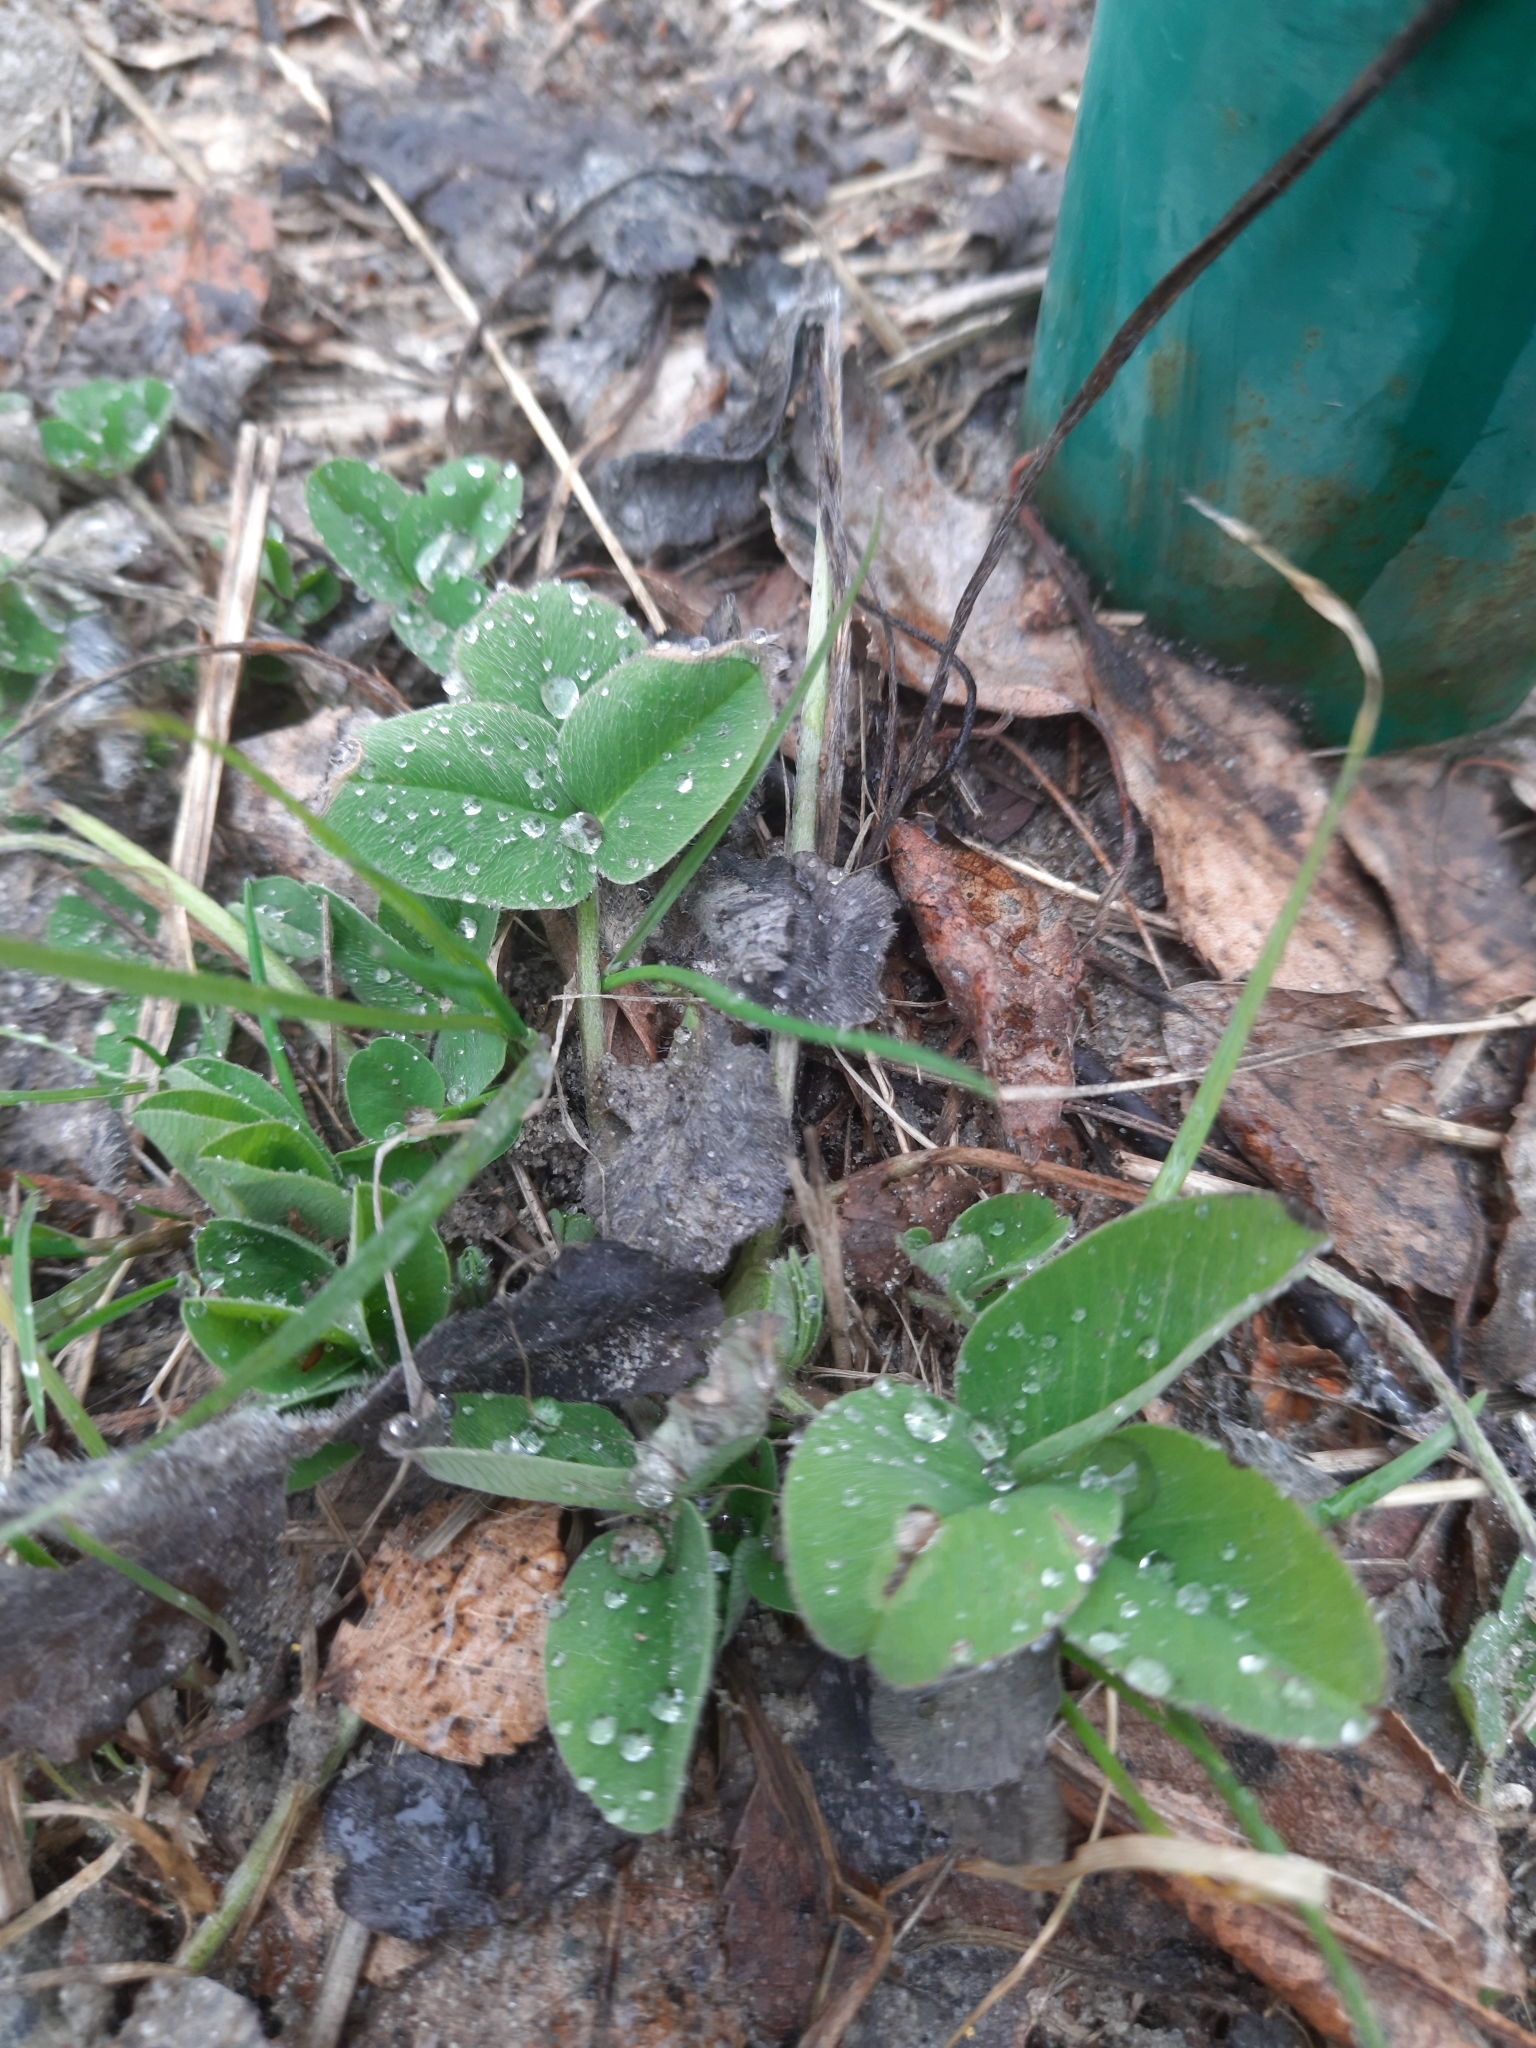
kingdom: Plantae
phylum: Tracheophyta
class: Magnoliopsida
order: Fabales
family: Fabaceae
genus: Trifolium
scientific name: Trifolium pratense
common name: Red clover
